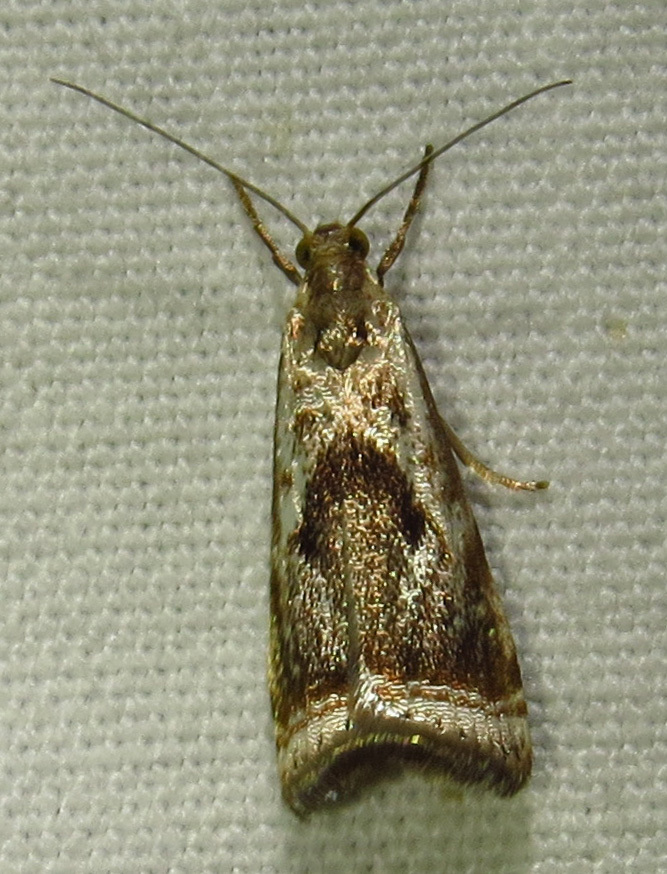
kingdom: Animalia
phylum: Arthropoda
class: Insecta
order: Lepidoptera
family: Crambidae
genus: Microcrambus
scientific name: Microcrambus elegans
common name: Elegant grass-veneer
